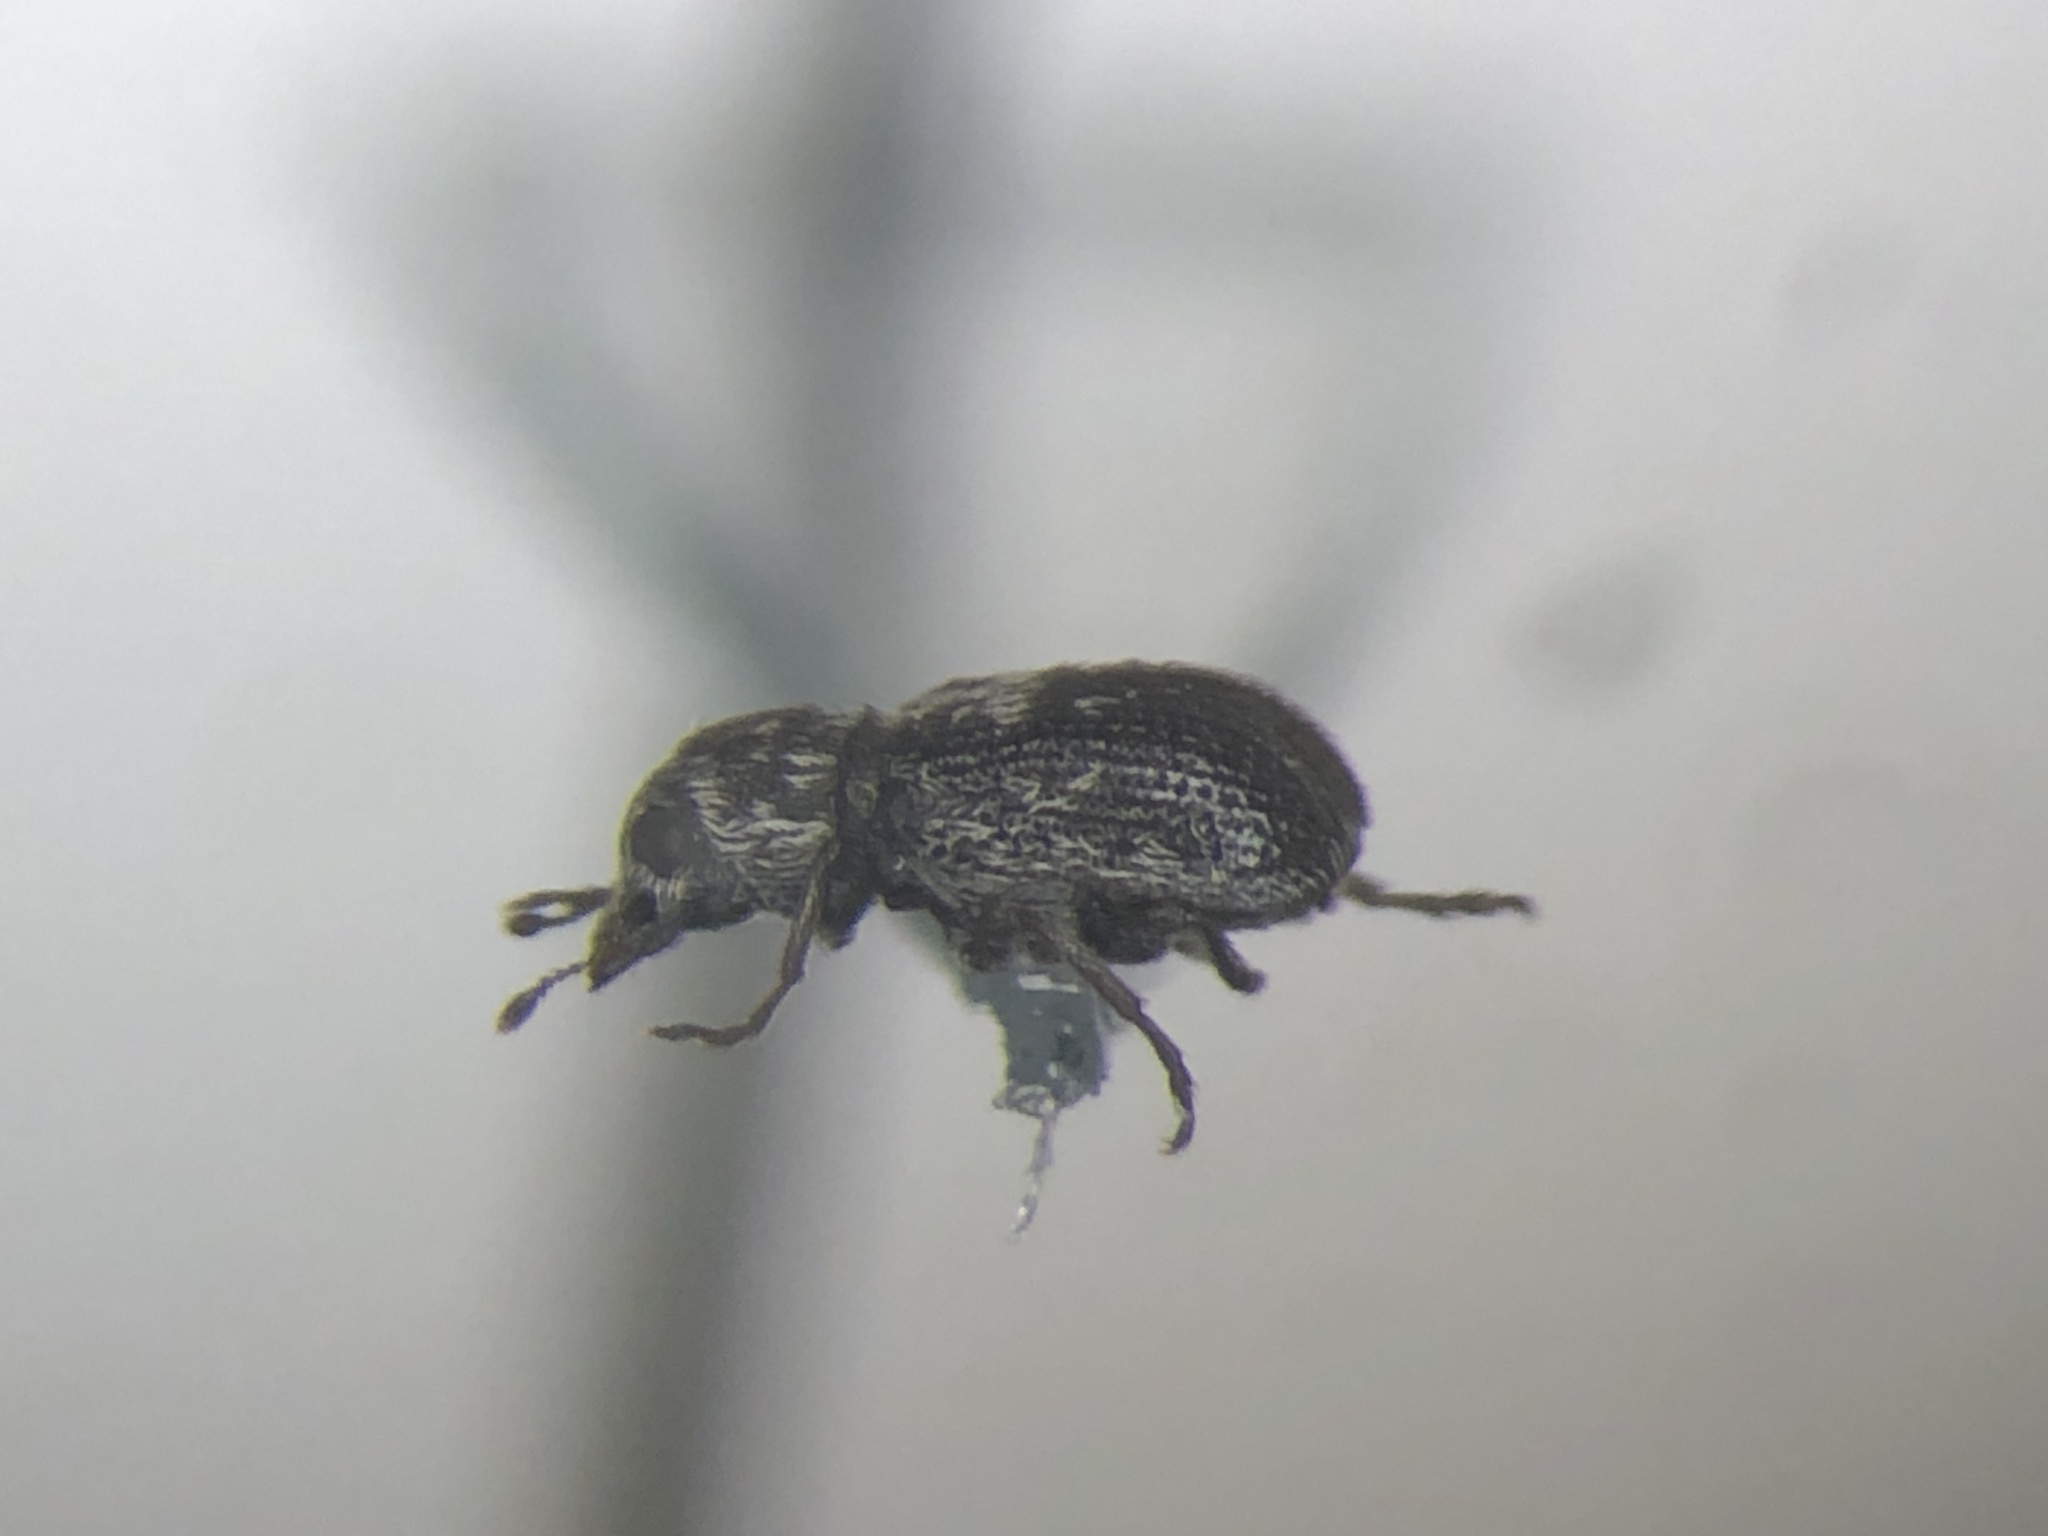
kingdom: Animalia
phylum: Arthropoda
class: Insecta
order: Coleoptera
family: Anthribidae
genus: Ormiscus
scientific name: Ormiscus saltator
